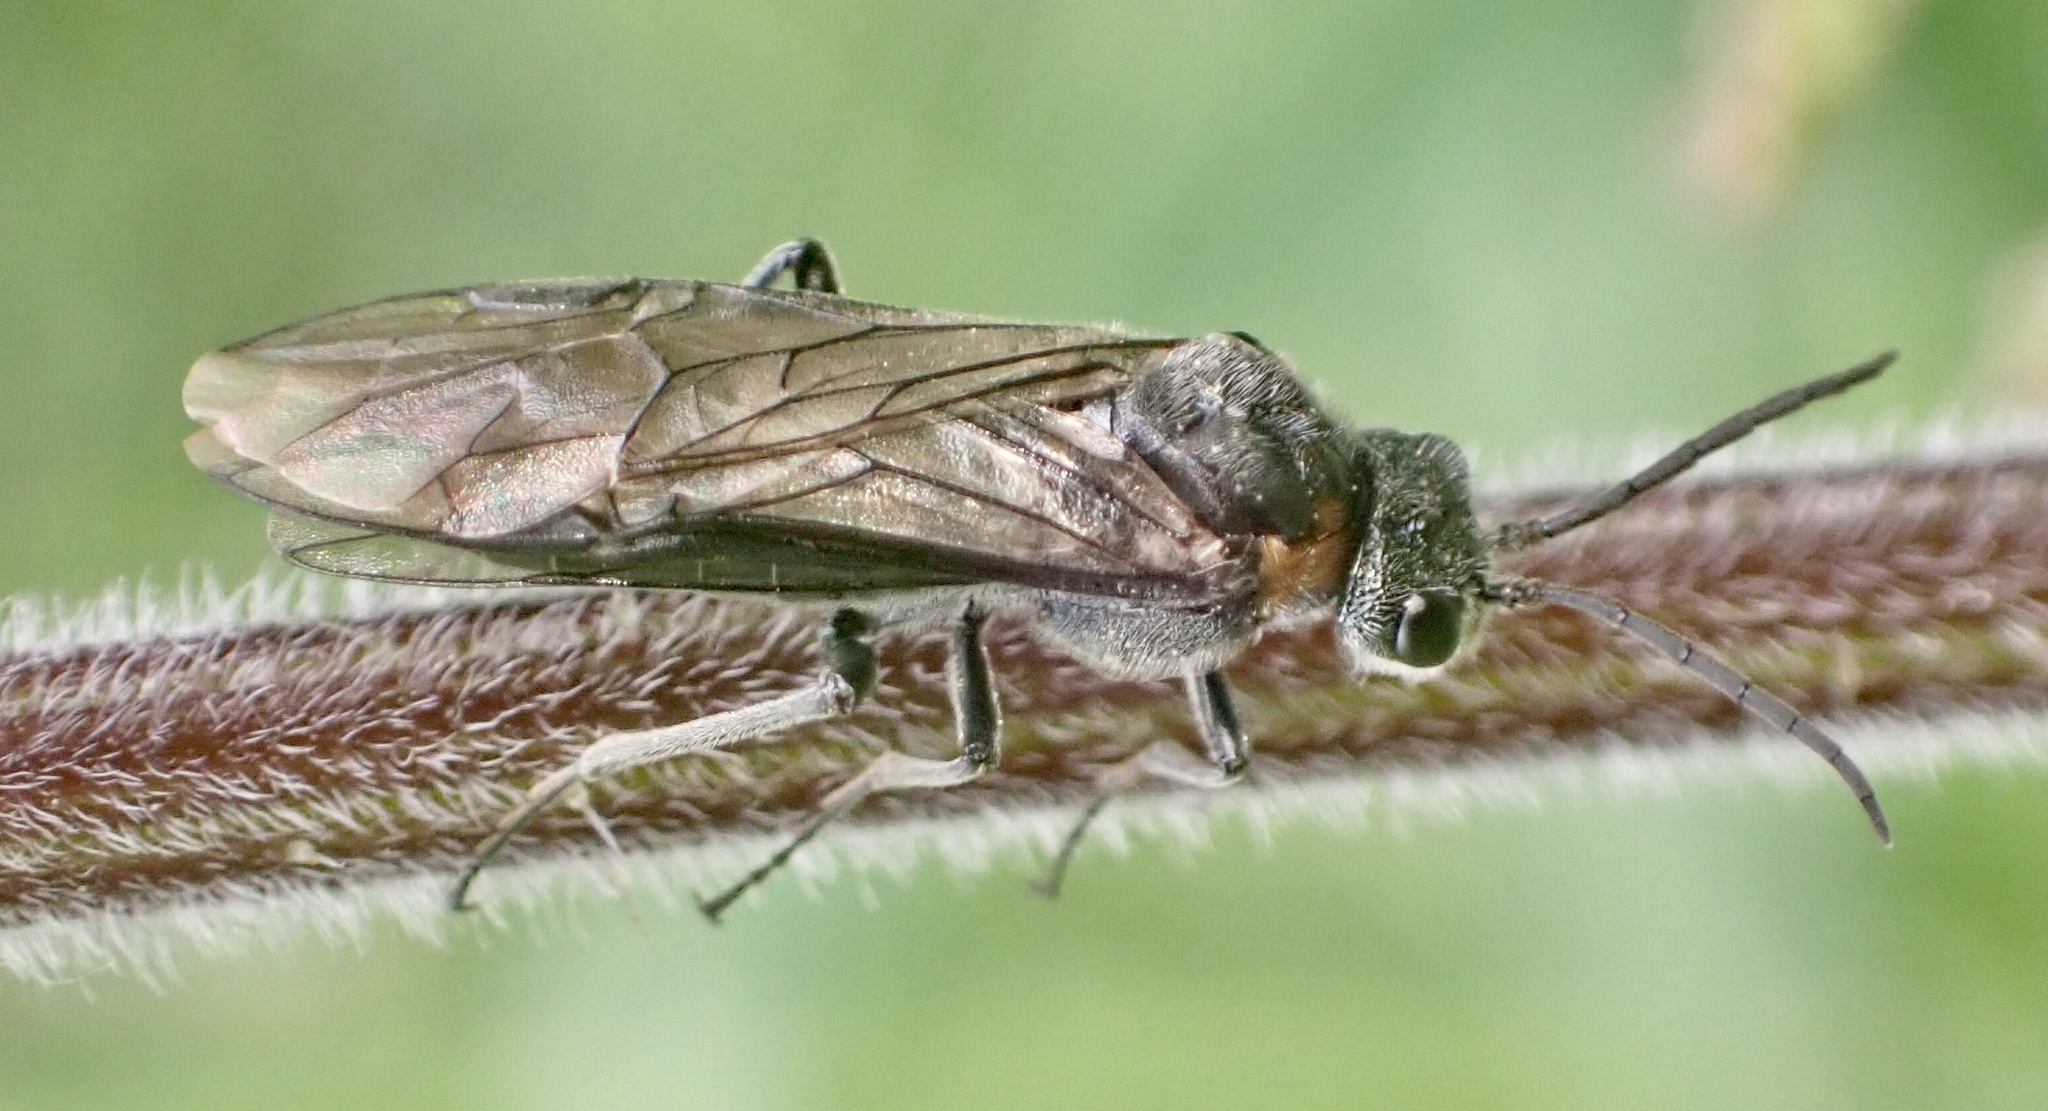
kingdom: Animalia
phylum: Arthropoda
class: Insecta
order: Hymenoptera
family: Tenthredinidae
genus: Dolerus
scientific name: Dolerus haematodes
